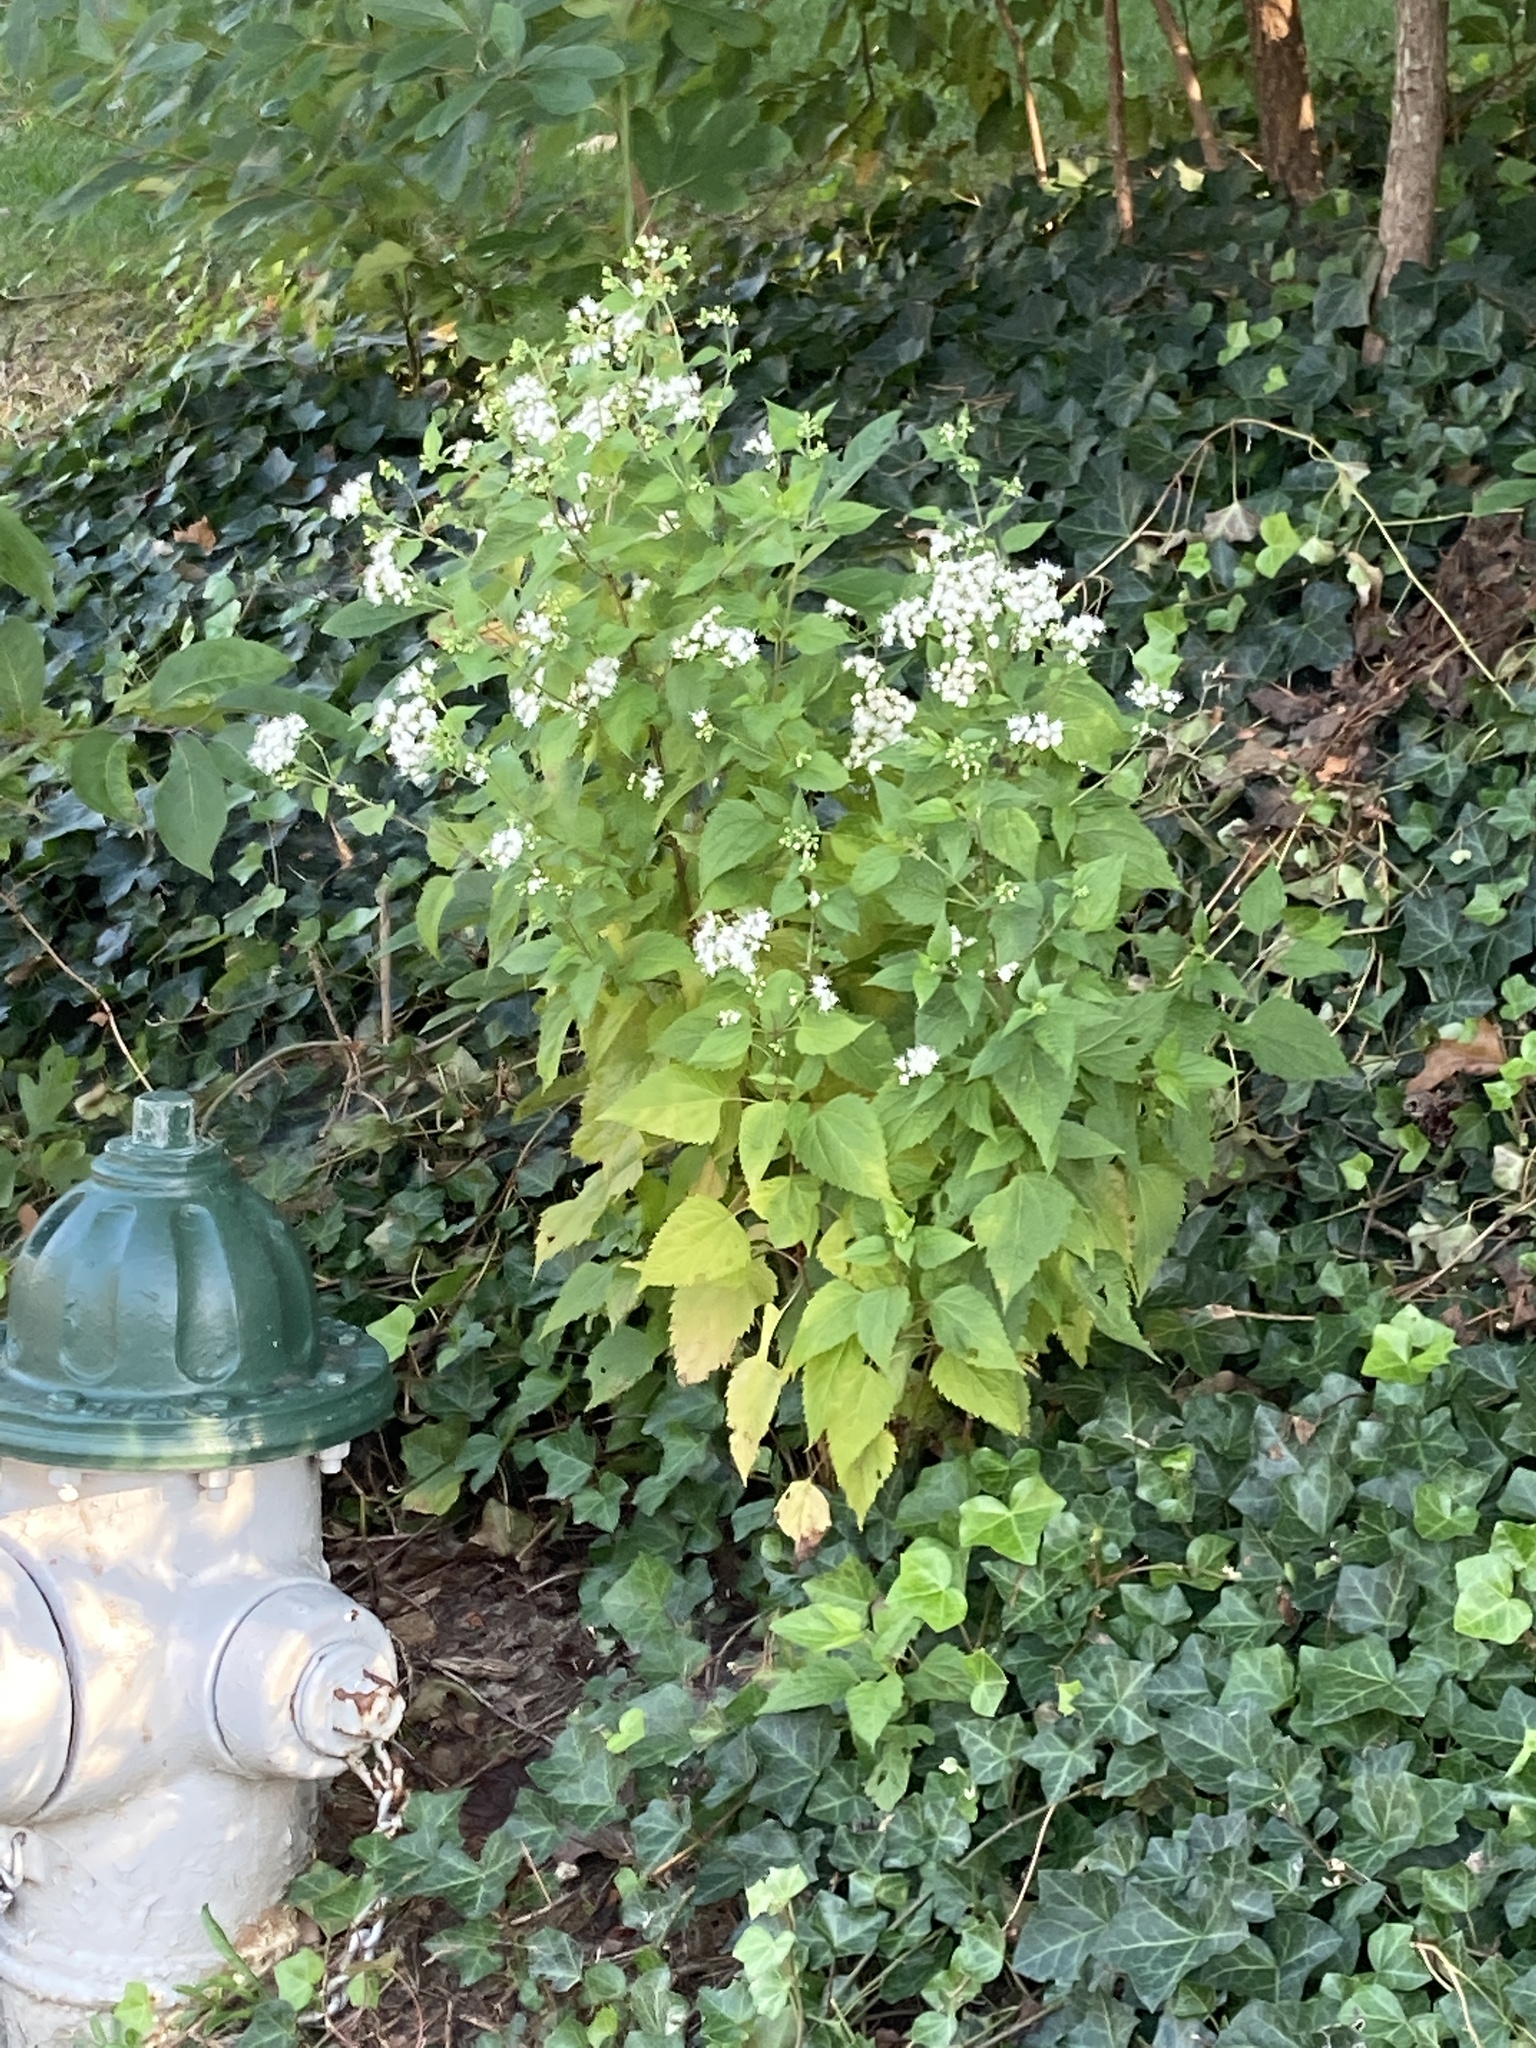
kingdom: Plantae
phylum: Tracheophyta
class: Magnoliopsida
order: Asterales
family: Asteraceae
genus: Ageratina
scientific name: Ageratina altissima
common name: White snakeroot
